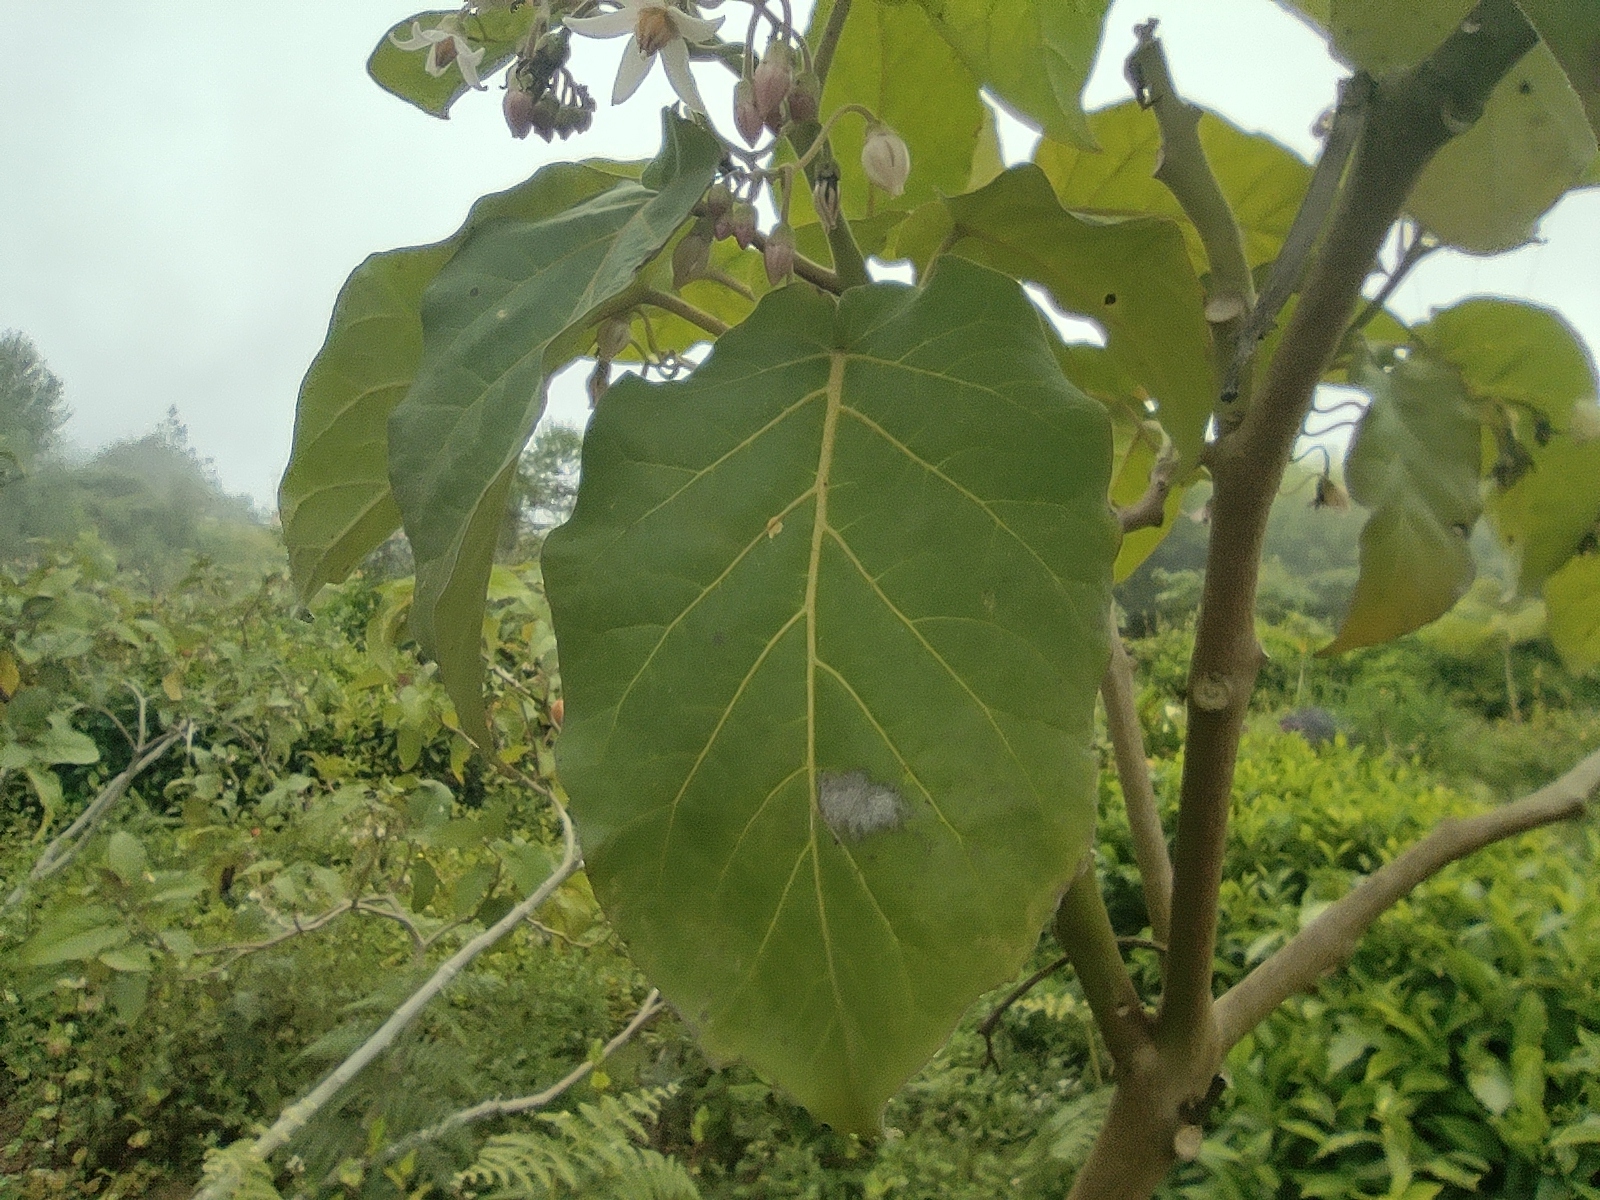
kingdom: Plantae
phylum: Tracheophyta
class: Magnoliopsida
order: Solanales
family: Solanaceae
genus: Solanum
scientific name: Solanum betaceum
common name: Tamarillo
